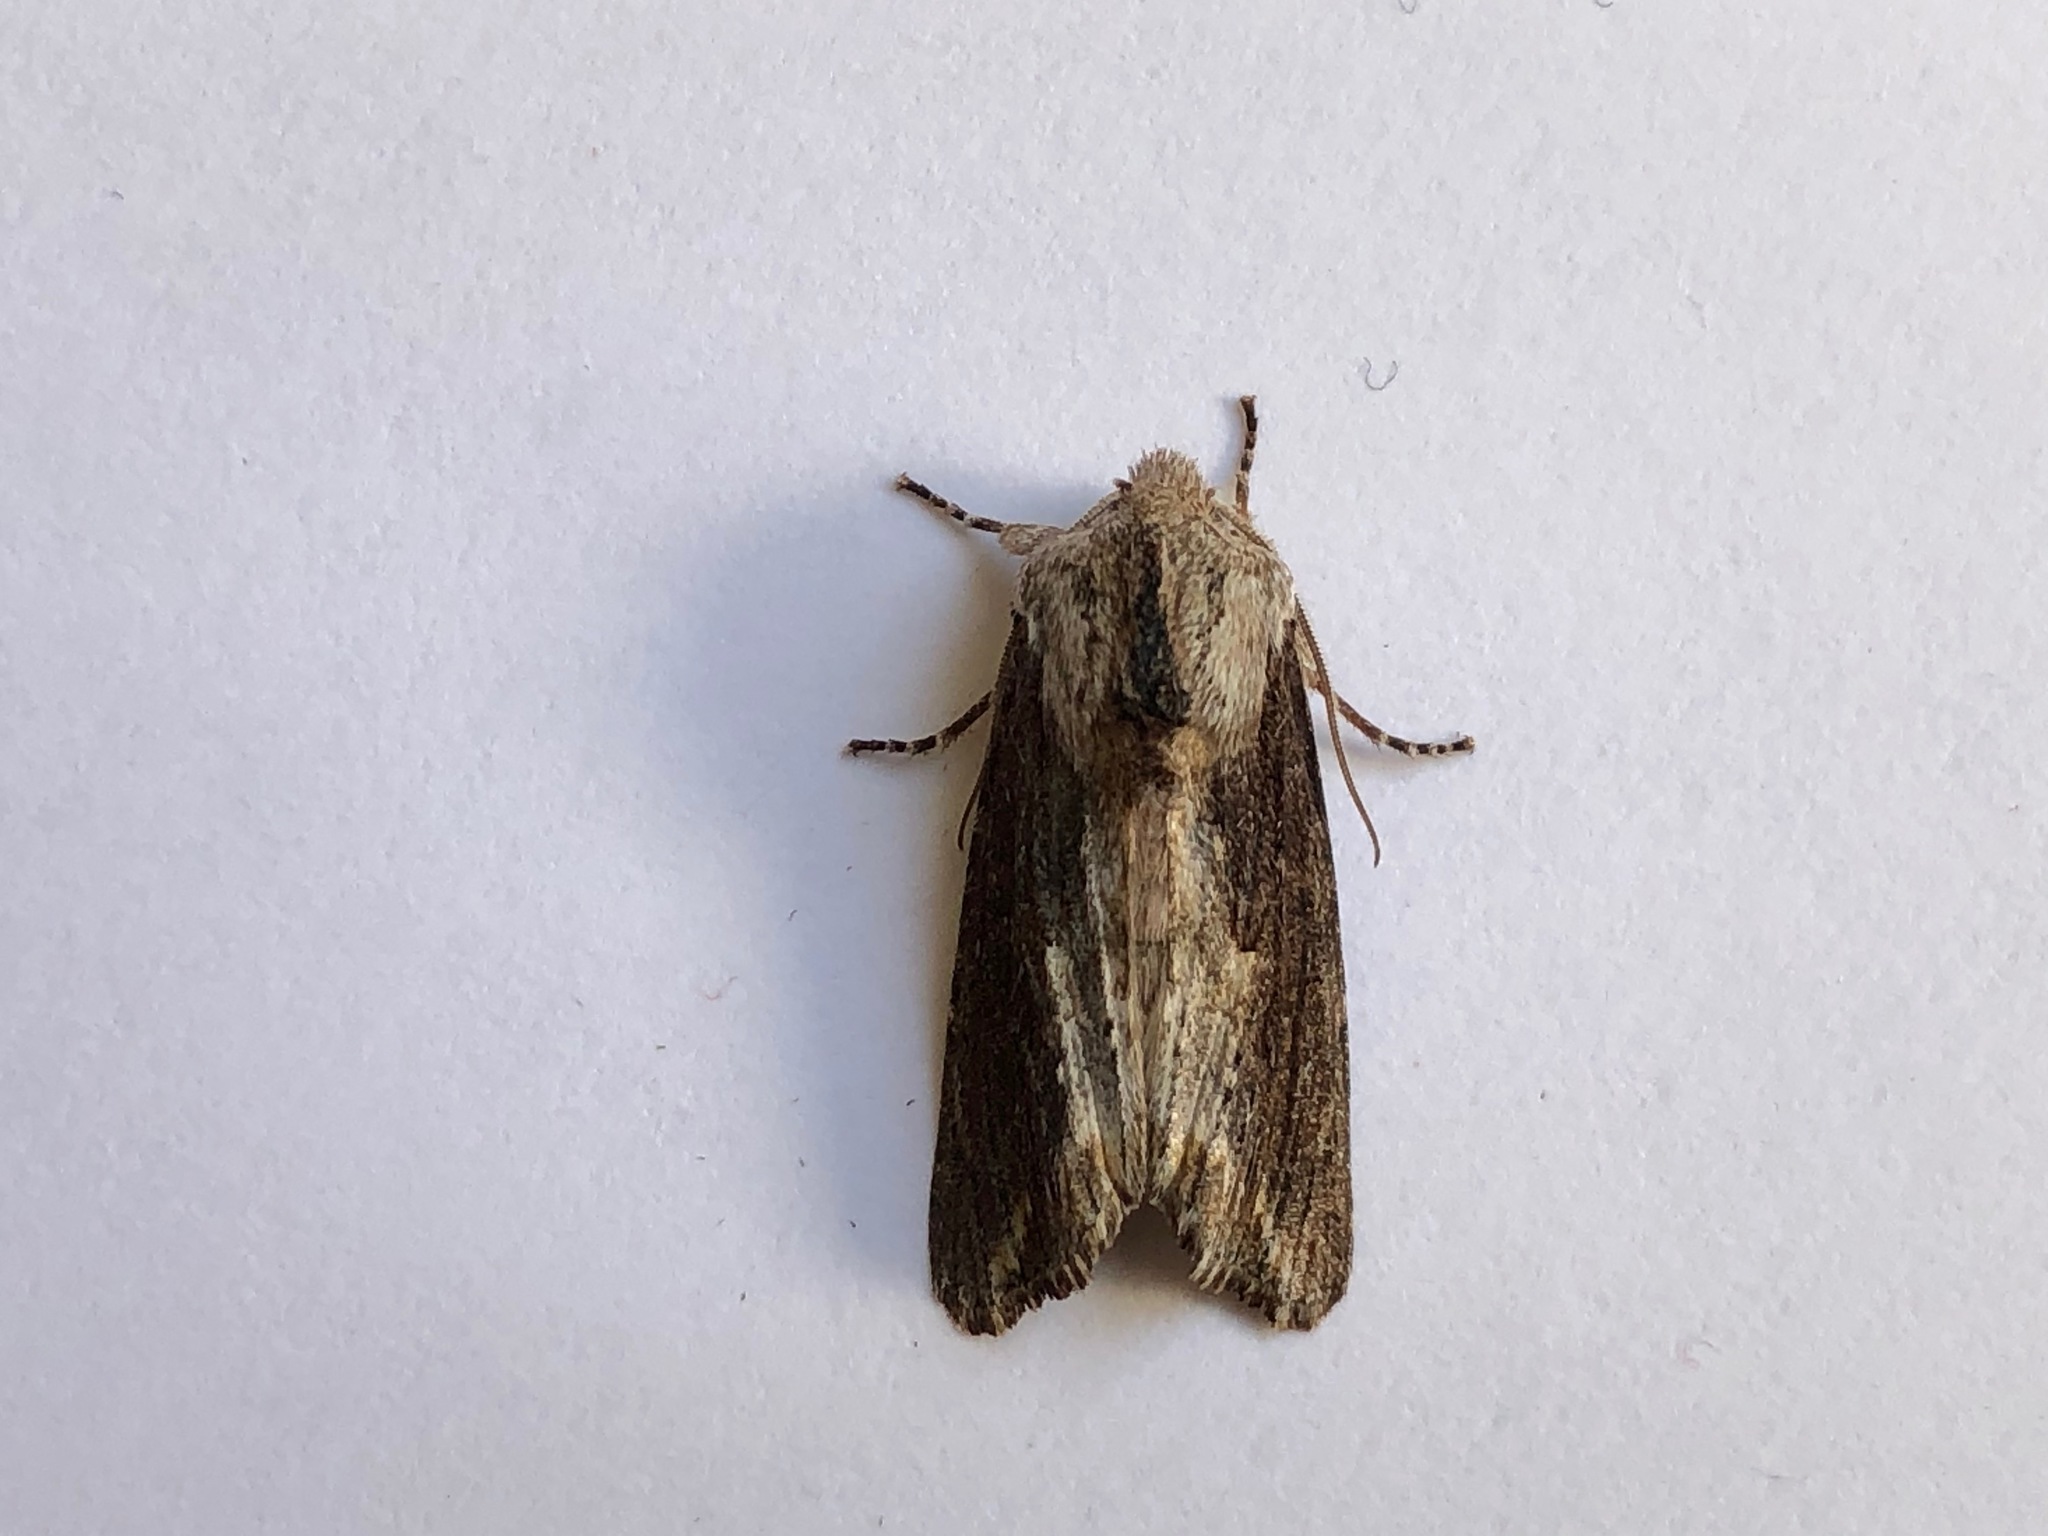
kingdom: Animalia
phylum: Arthropoda
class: Insecta
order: Lepidoptera
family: Noctuidae
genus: Egira
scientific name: Egira conspicillaris
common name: Silver cloud
